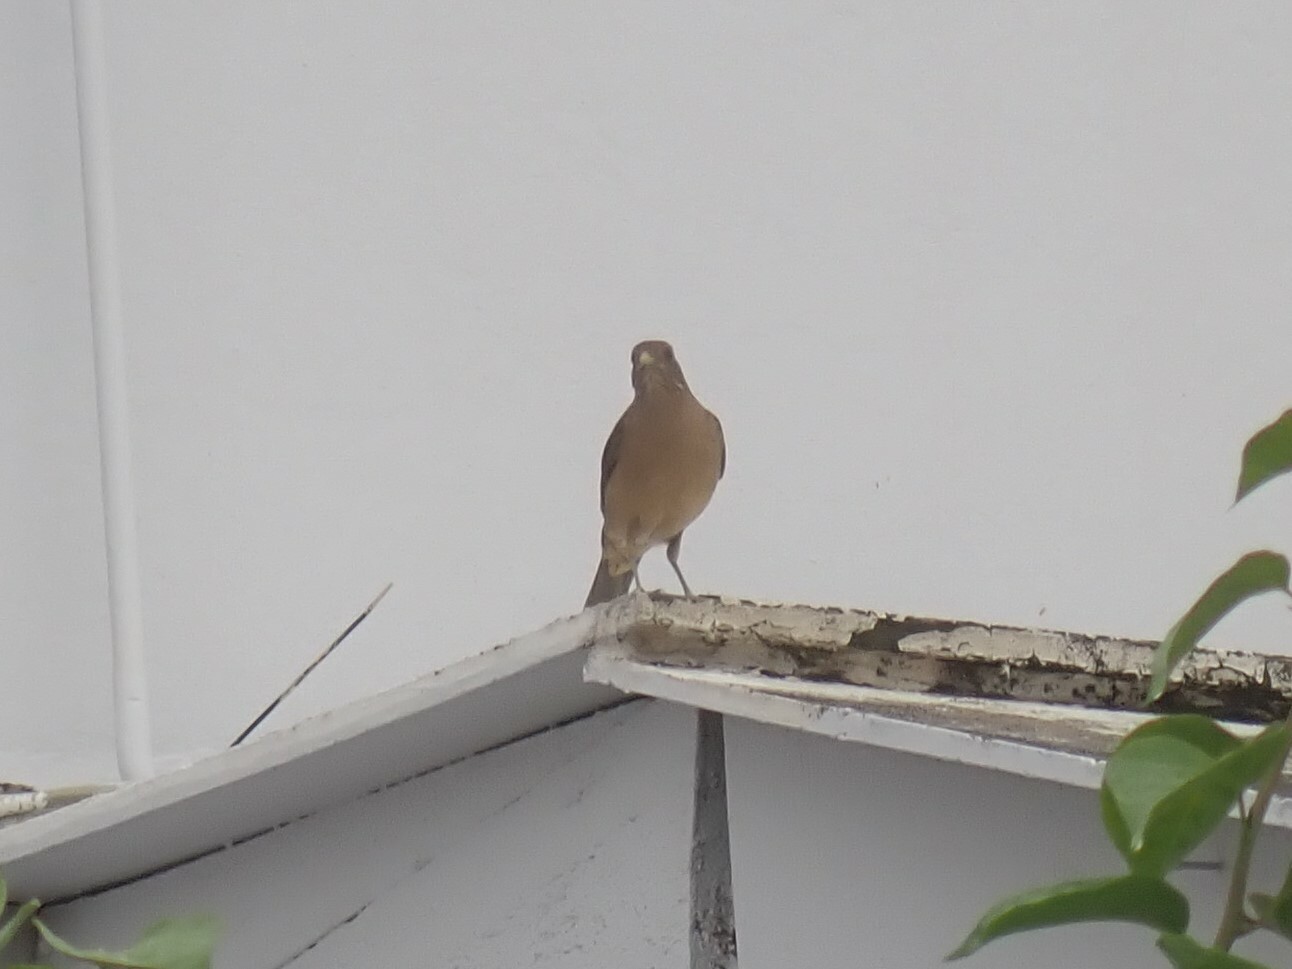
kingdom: Animalia
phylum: Chordata
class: Aves
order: Passeriformes
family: Turdidae
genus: Turdus
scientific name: Turdus grayi
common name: Clay-colored thrush
